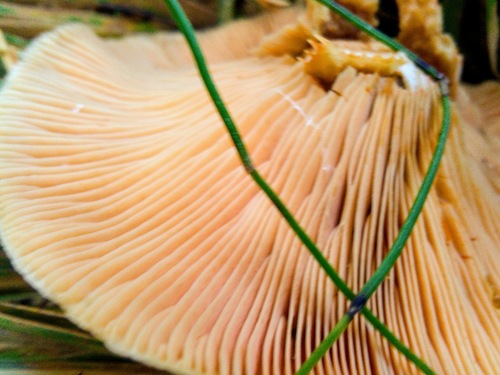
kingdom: Fungi
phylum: Basidiomycota
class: Agaricomycetes
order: Russulales
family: Russulaceae
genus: Lactarius
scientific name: Lactarius deliciosus
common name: Saffron milk-cap
